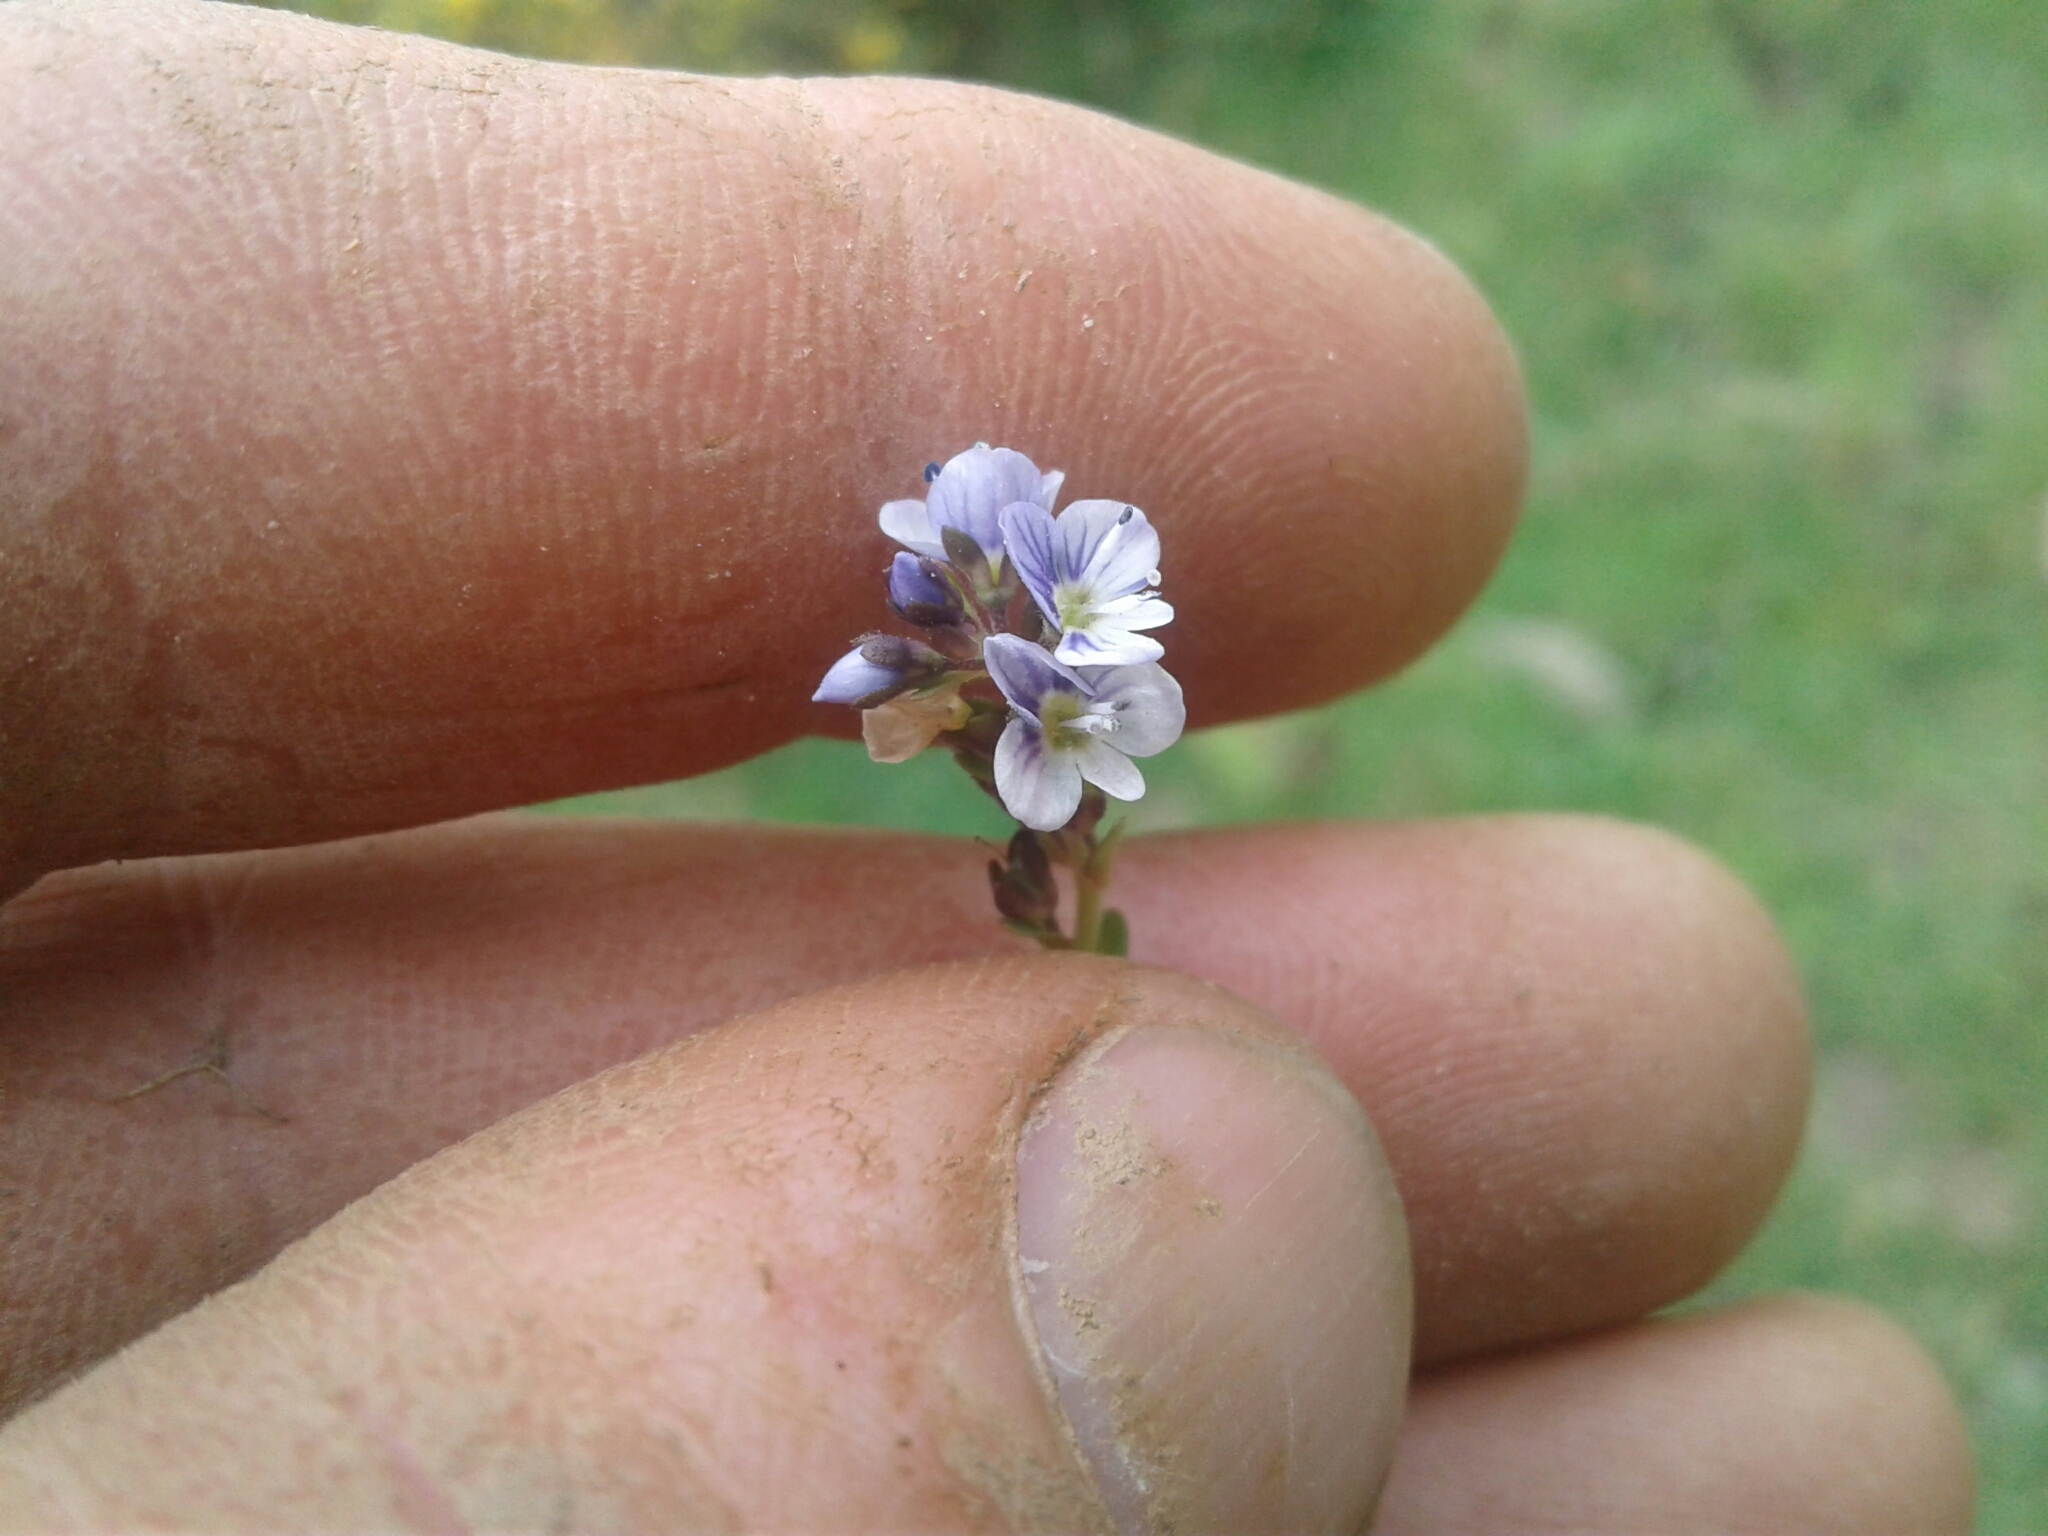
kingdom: Plantae
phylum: Tracheophyta
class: Magnoliopsida
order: Lamiales
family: Plantaginaceae
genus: Veronica
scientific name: Veronica serpyllifolia
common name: Thyme-leaved speedwell
